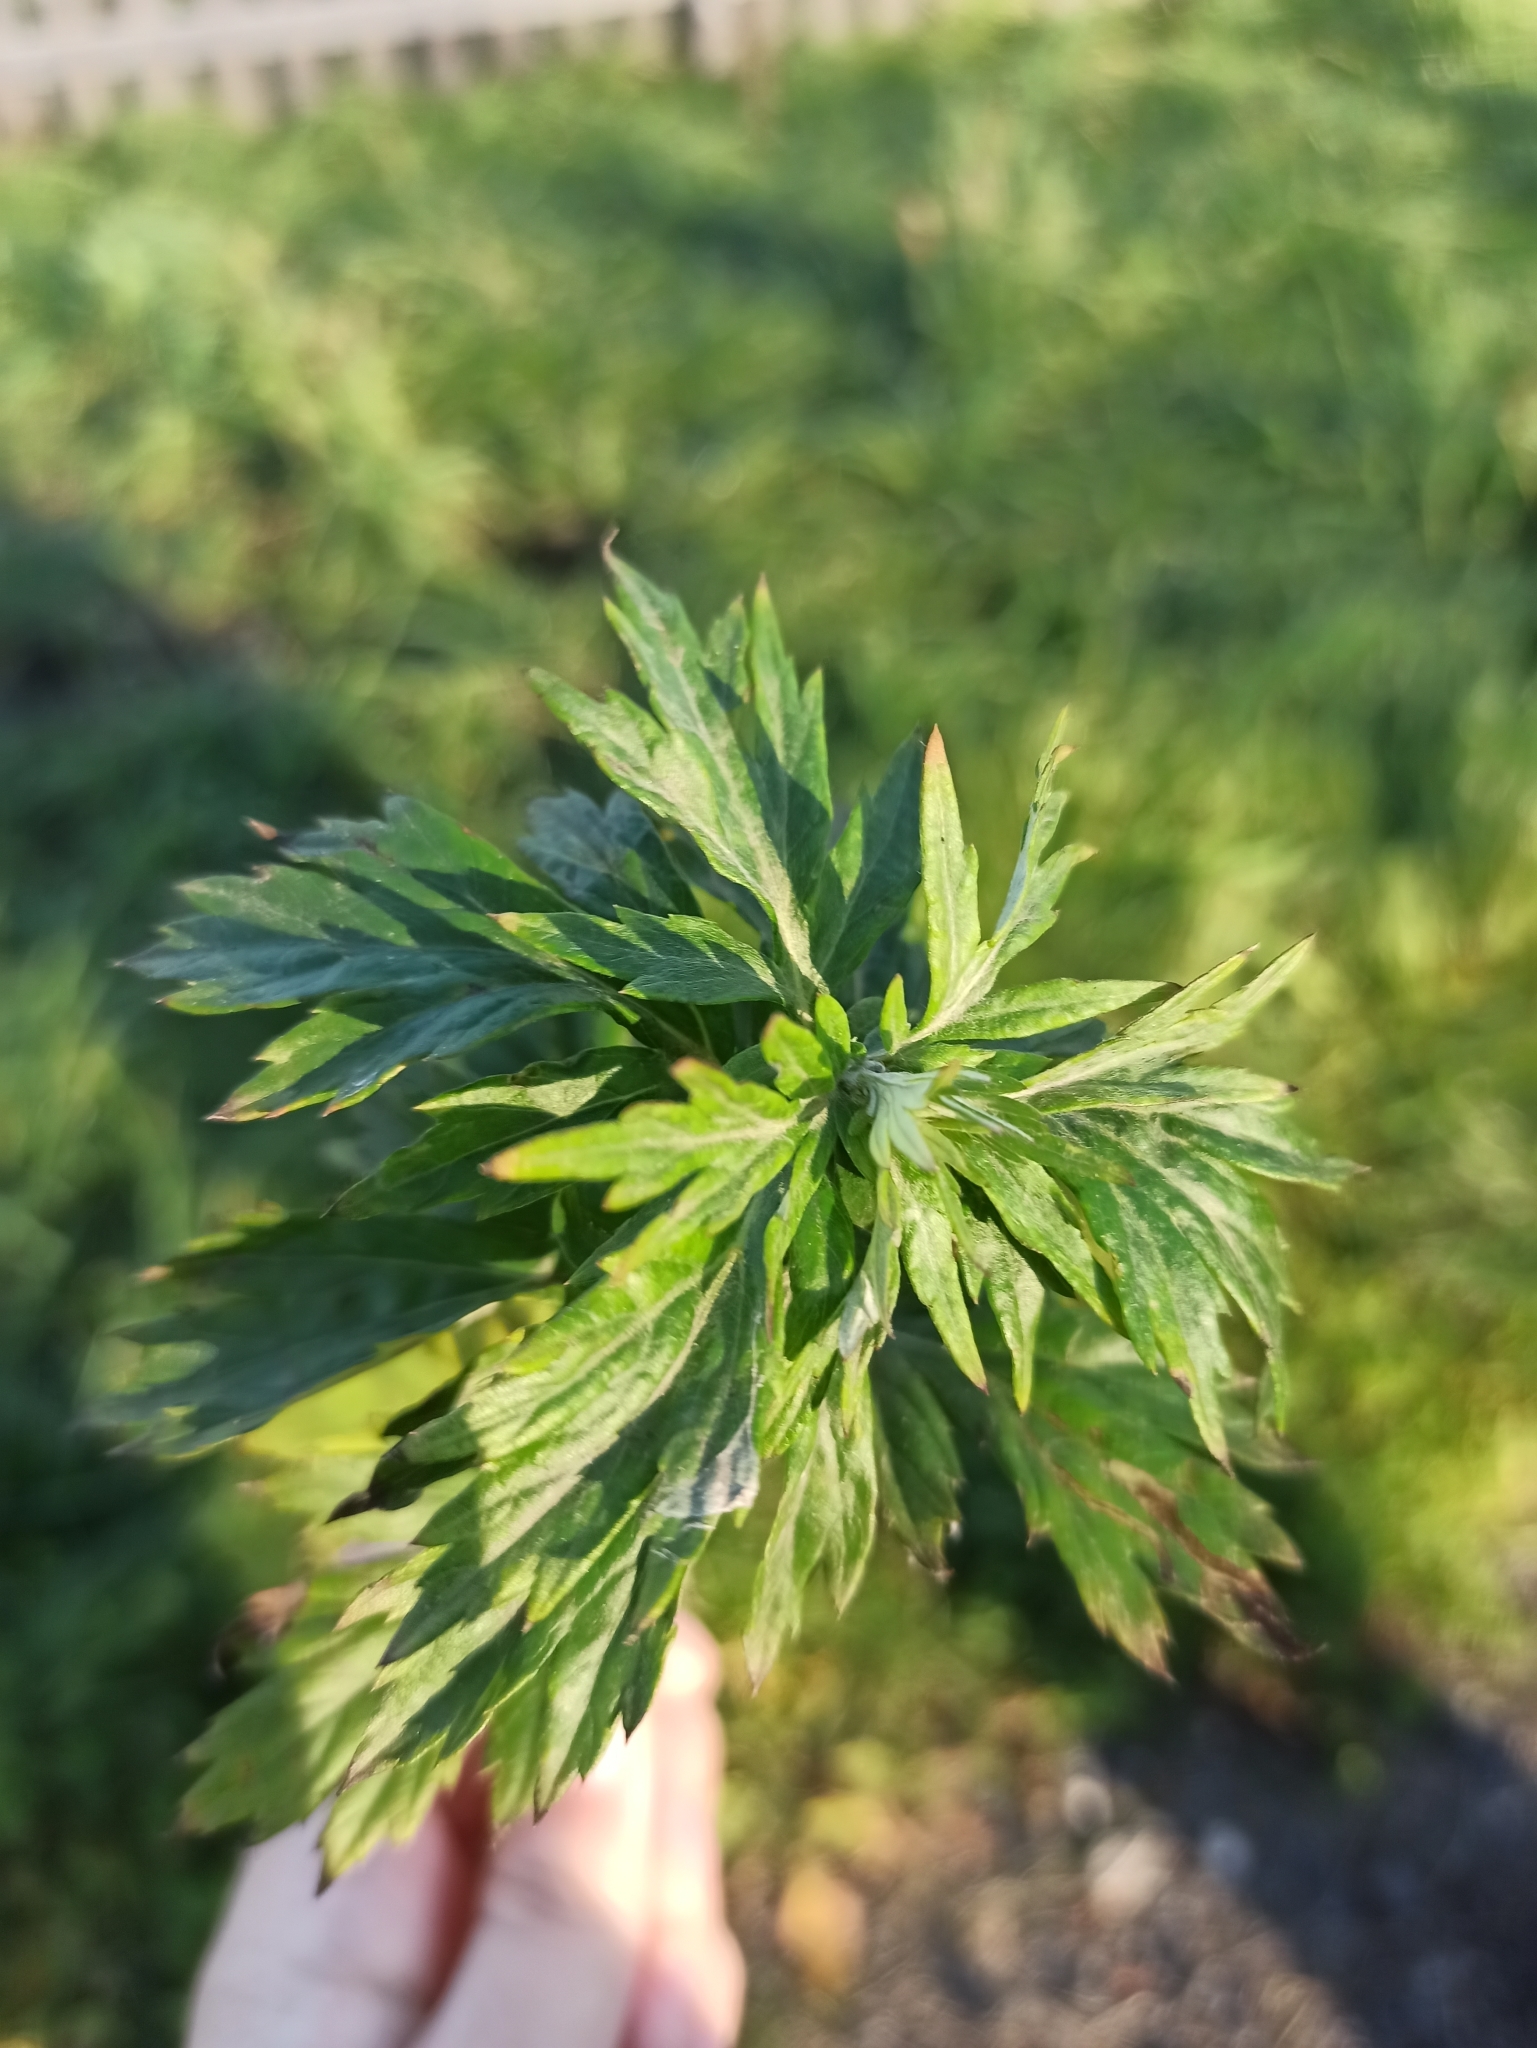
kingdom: Plantae
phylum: Tracheophyta
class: Magnoliopsida
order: Asterales
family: Asteraceae
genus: Artemisia
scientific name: Artemisia vulgaris
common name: Mugwort
